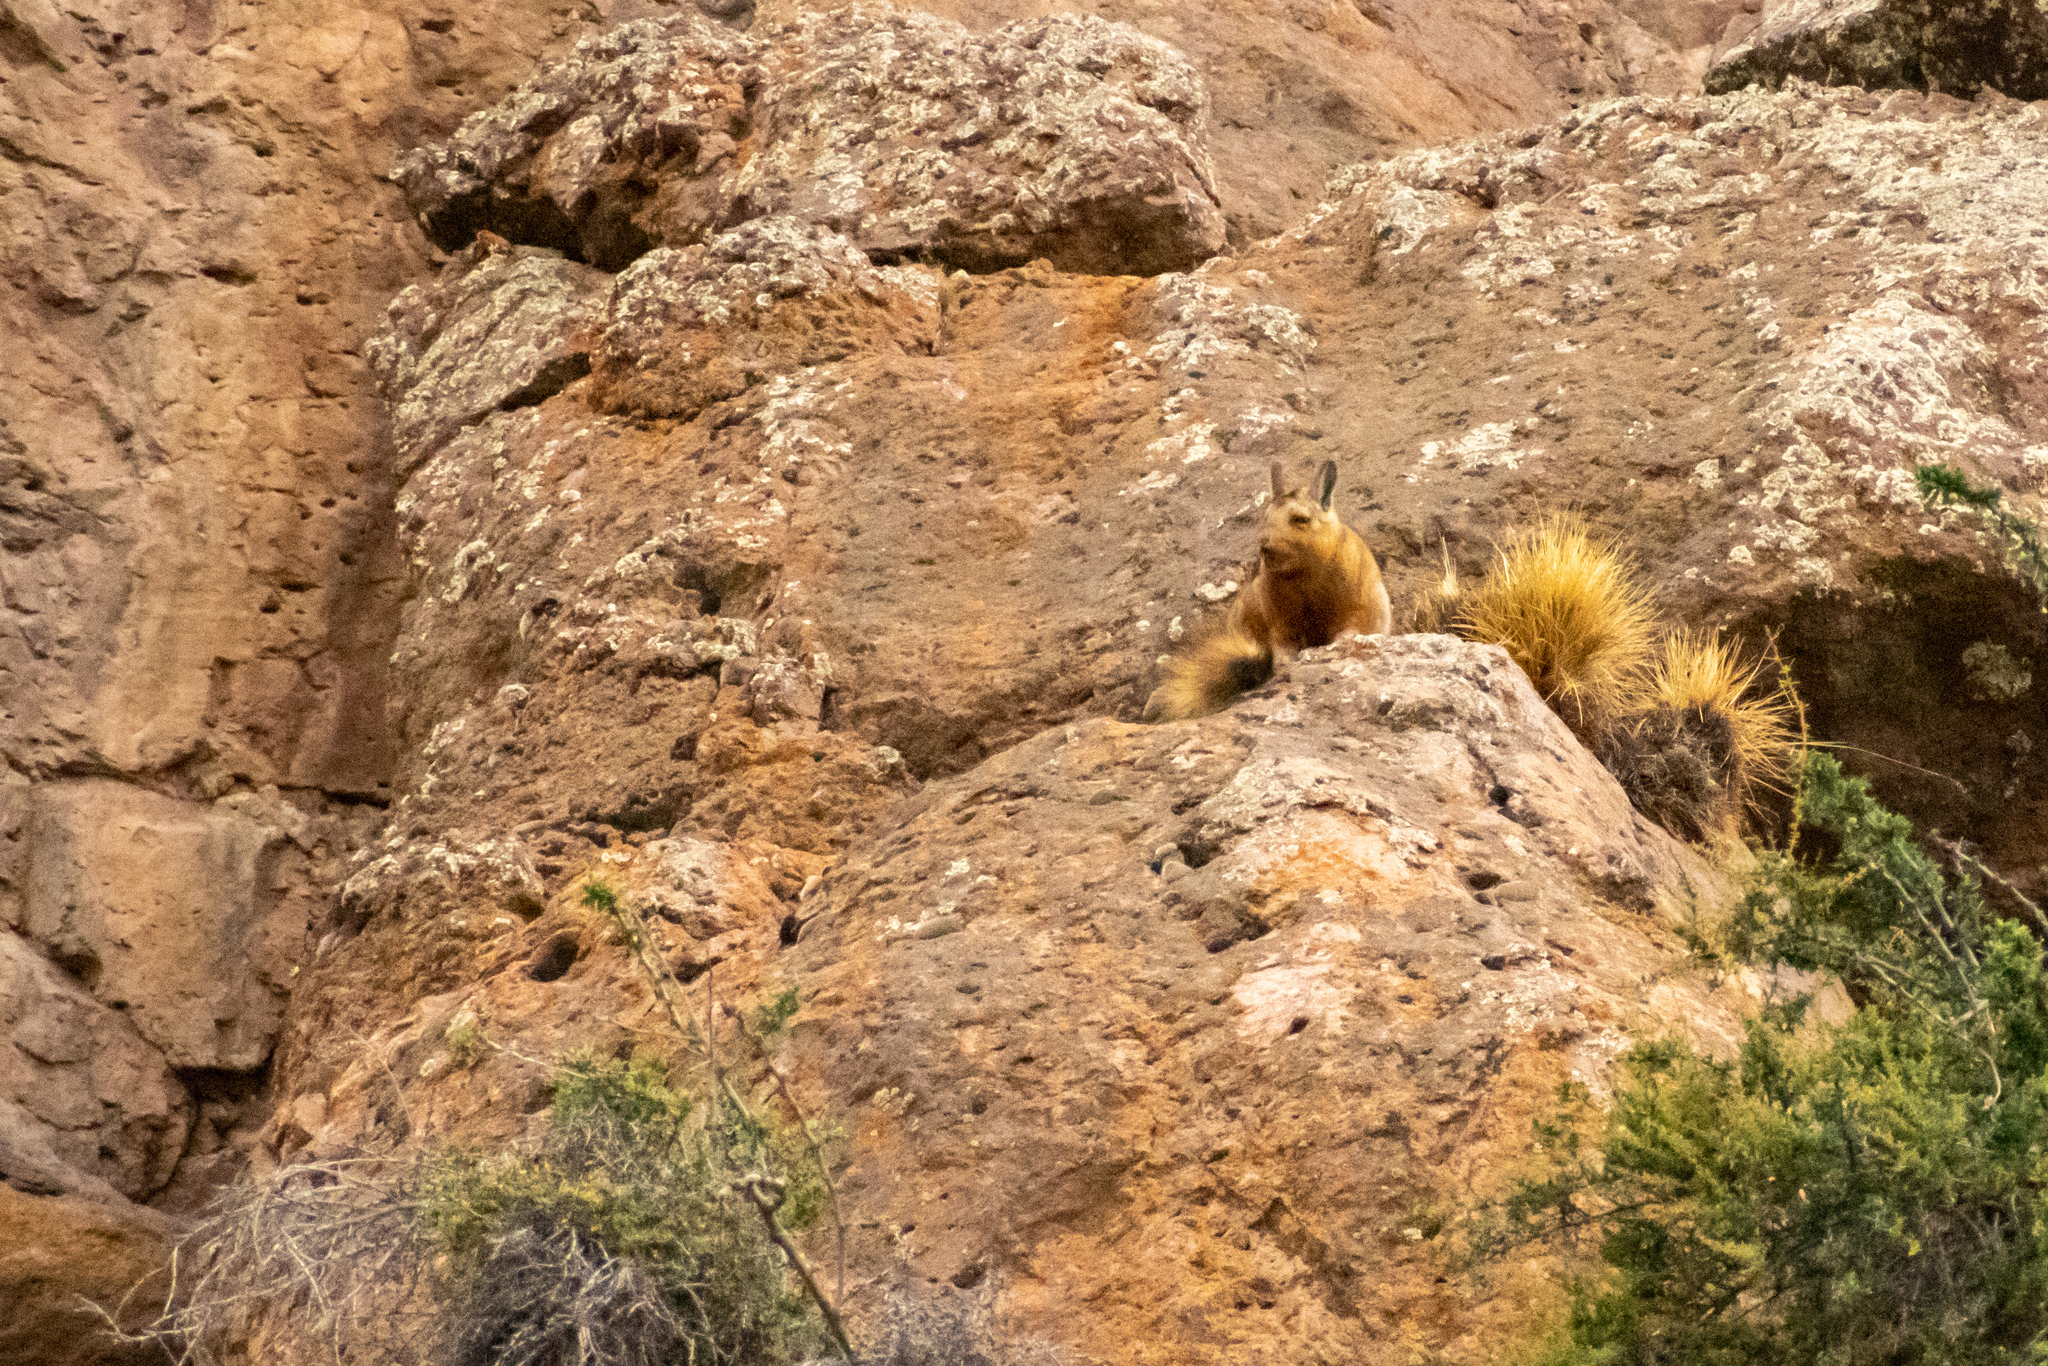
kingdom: Animalia
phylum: Chordata
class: Mammalia
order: Rodentia
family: Chinchillidae
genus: Lagidium
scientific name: Lagidium wolffsohni
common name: Wolffsohn's viscacha
